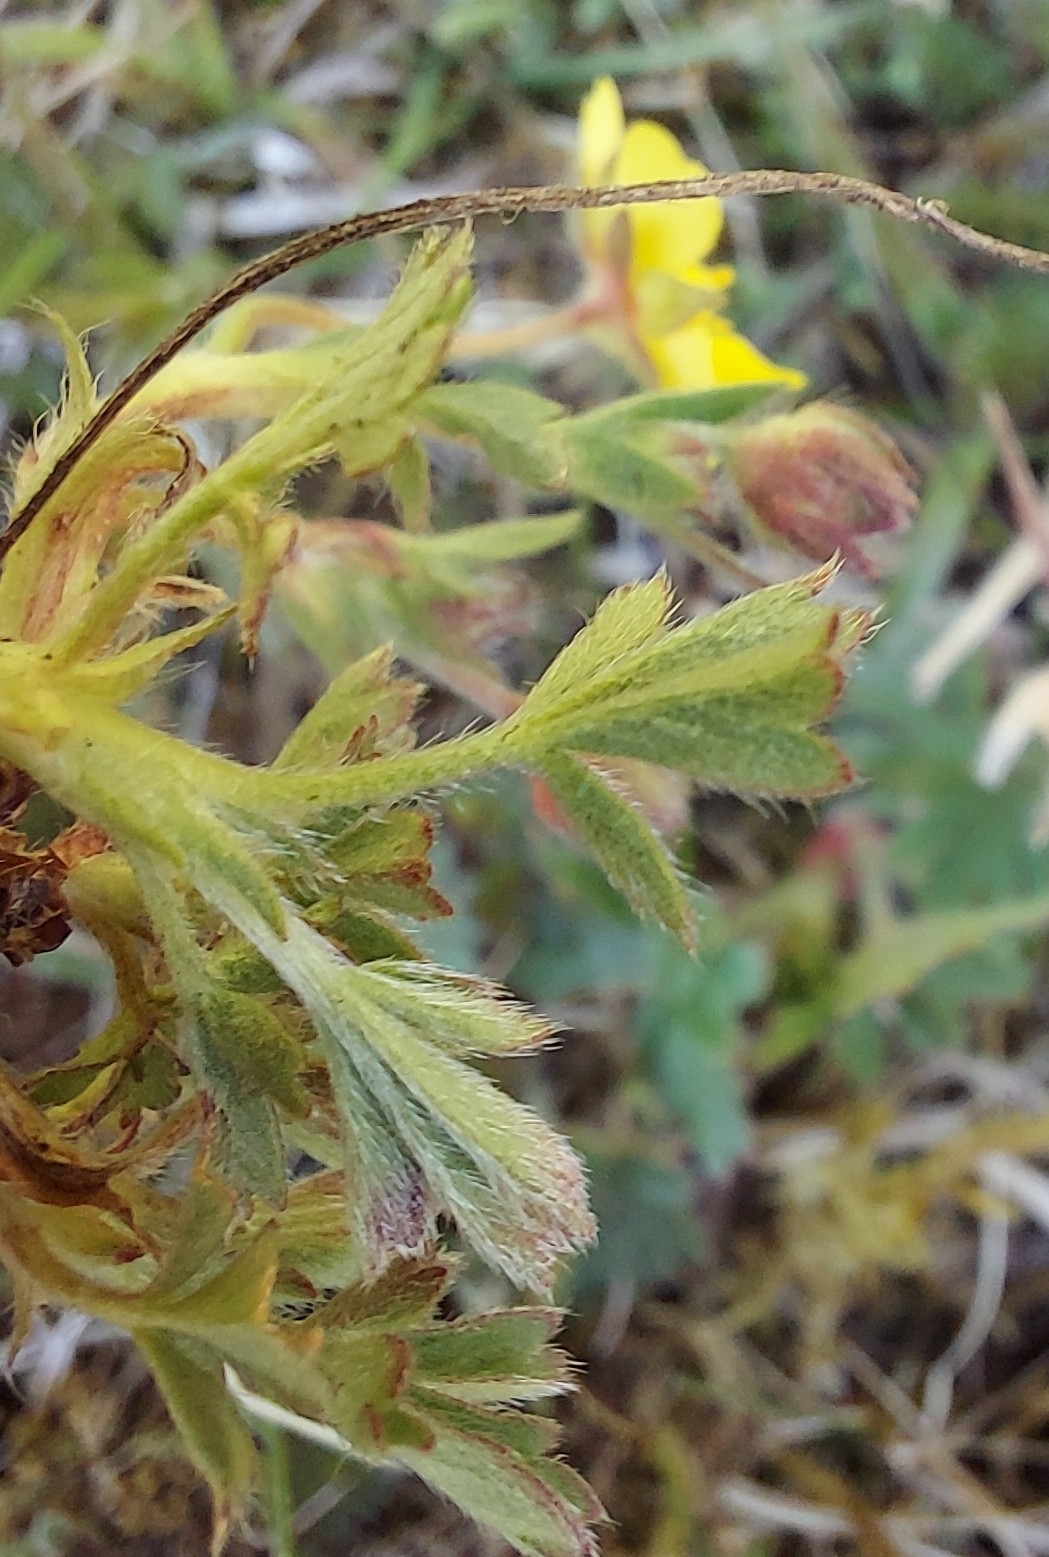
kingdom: Plantae
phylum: Tracheophyta
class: Magnoliopsida
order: Rosales
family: Rosaceae
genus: Potentilla
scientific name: Potentilla verna
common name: Spring cinquefoil
